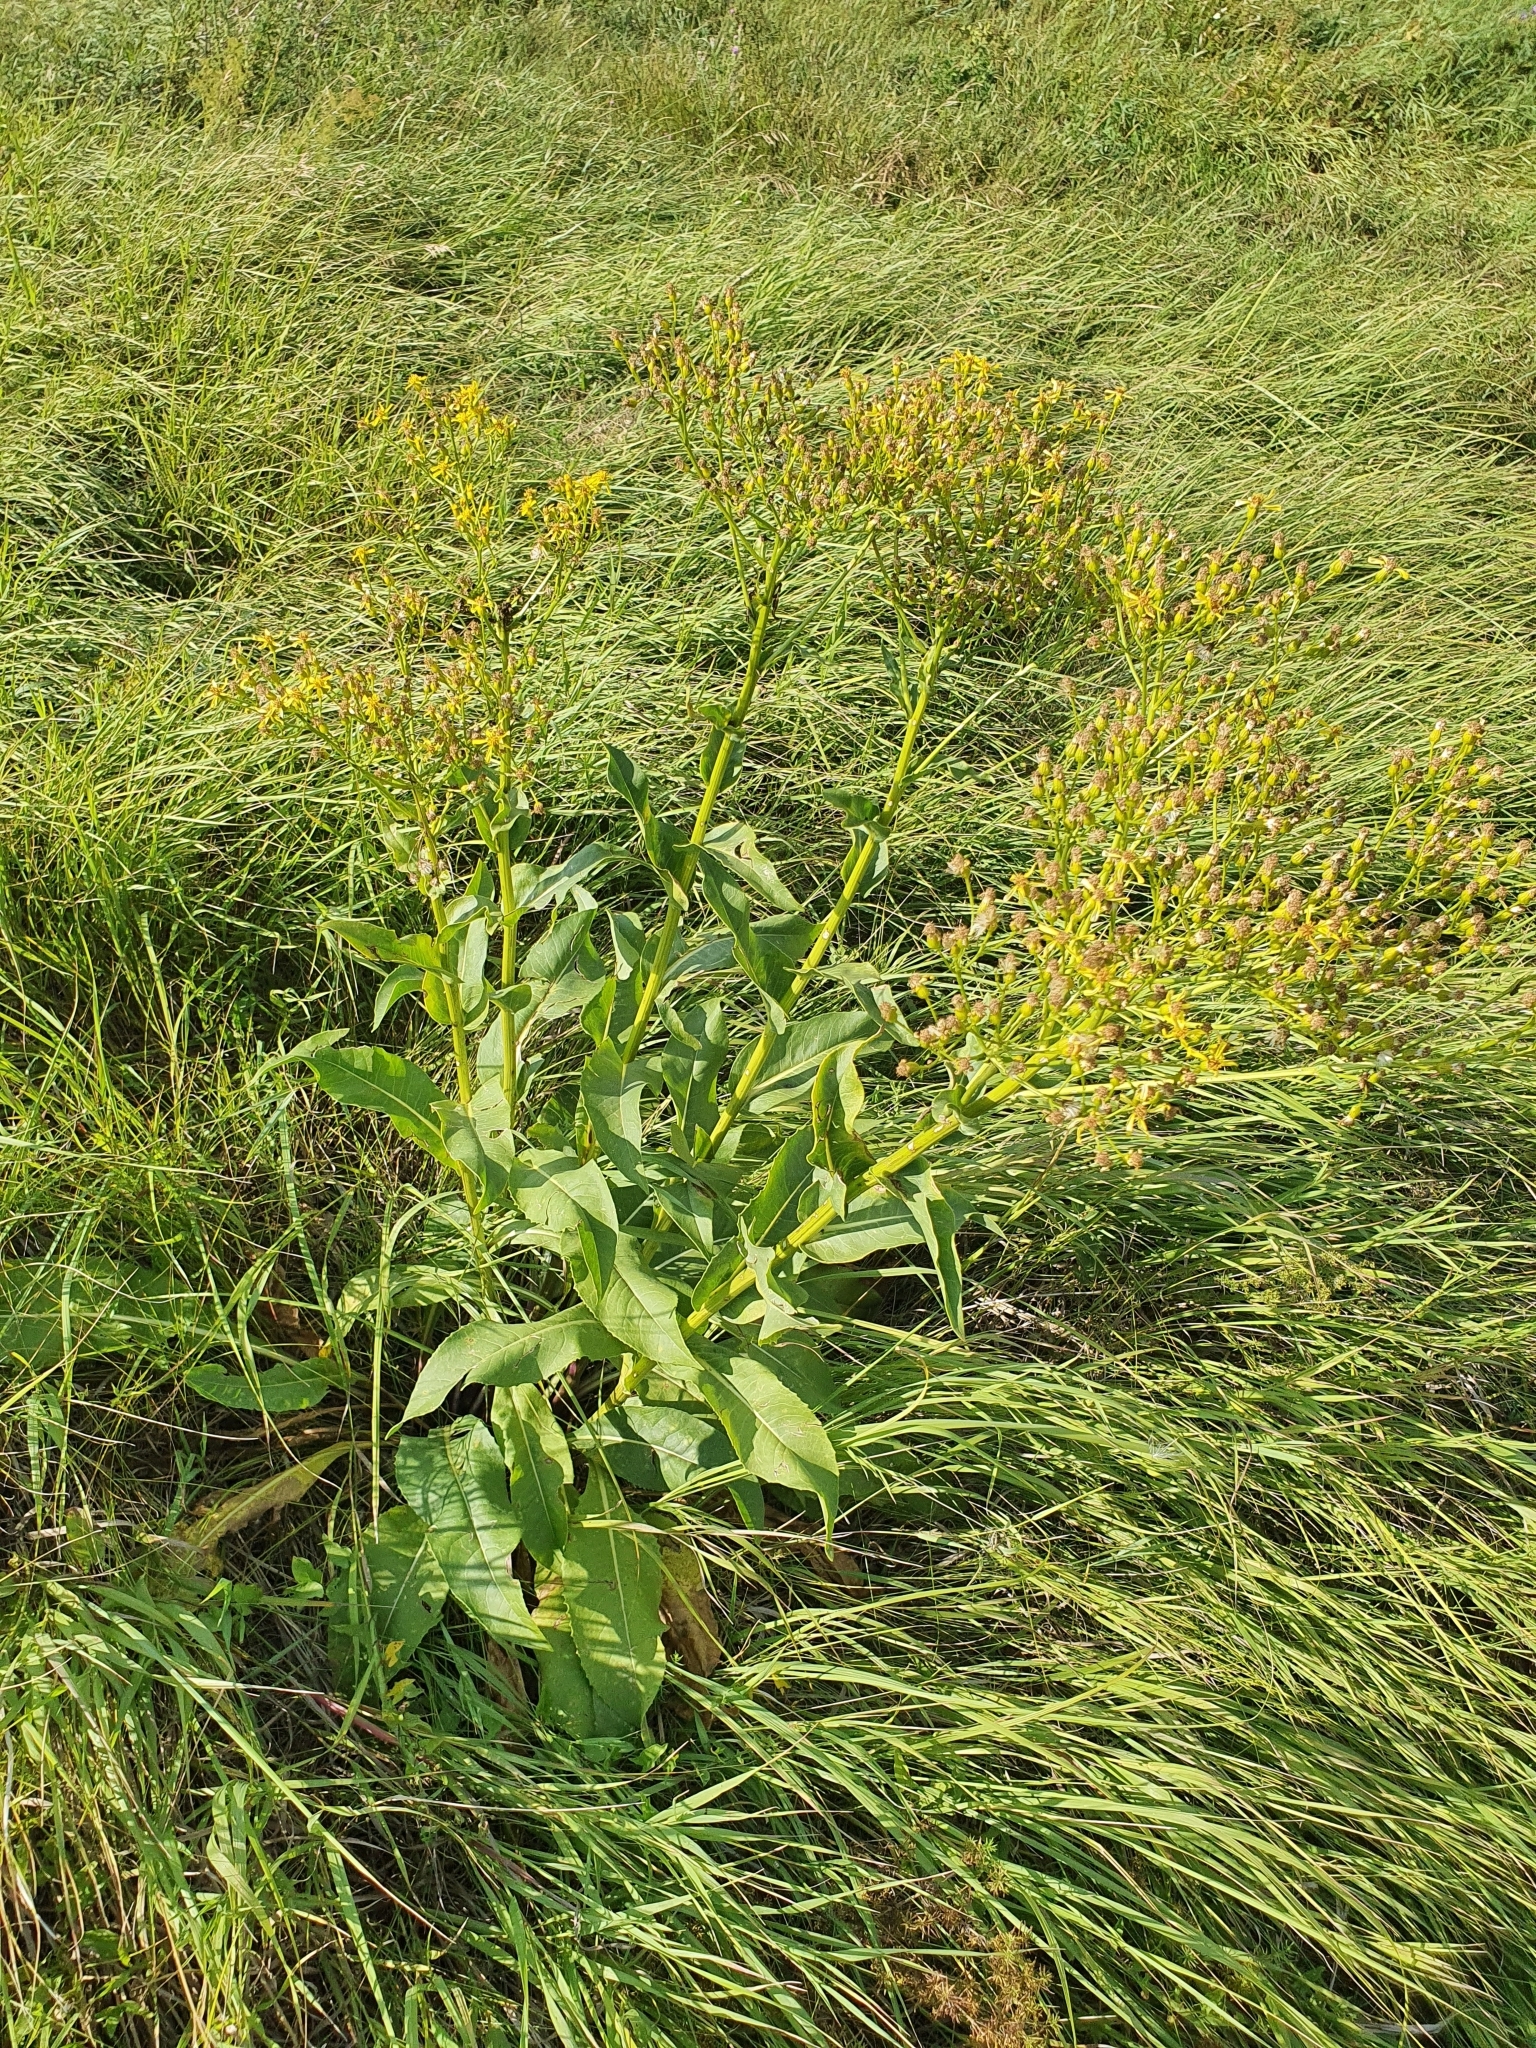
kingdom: Plantae
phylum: Tracheophyta
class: Magnoliopsida
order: Asterales
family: Asteraceae
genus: Senecio
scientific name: Senecio doria
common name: Golden ragwort
